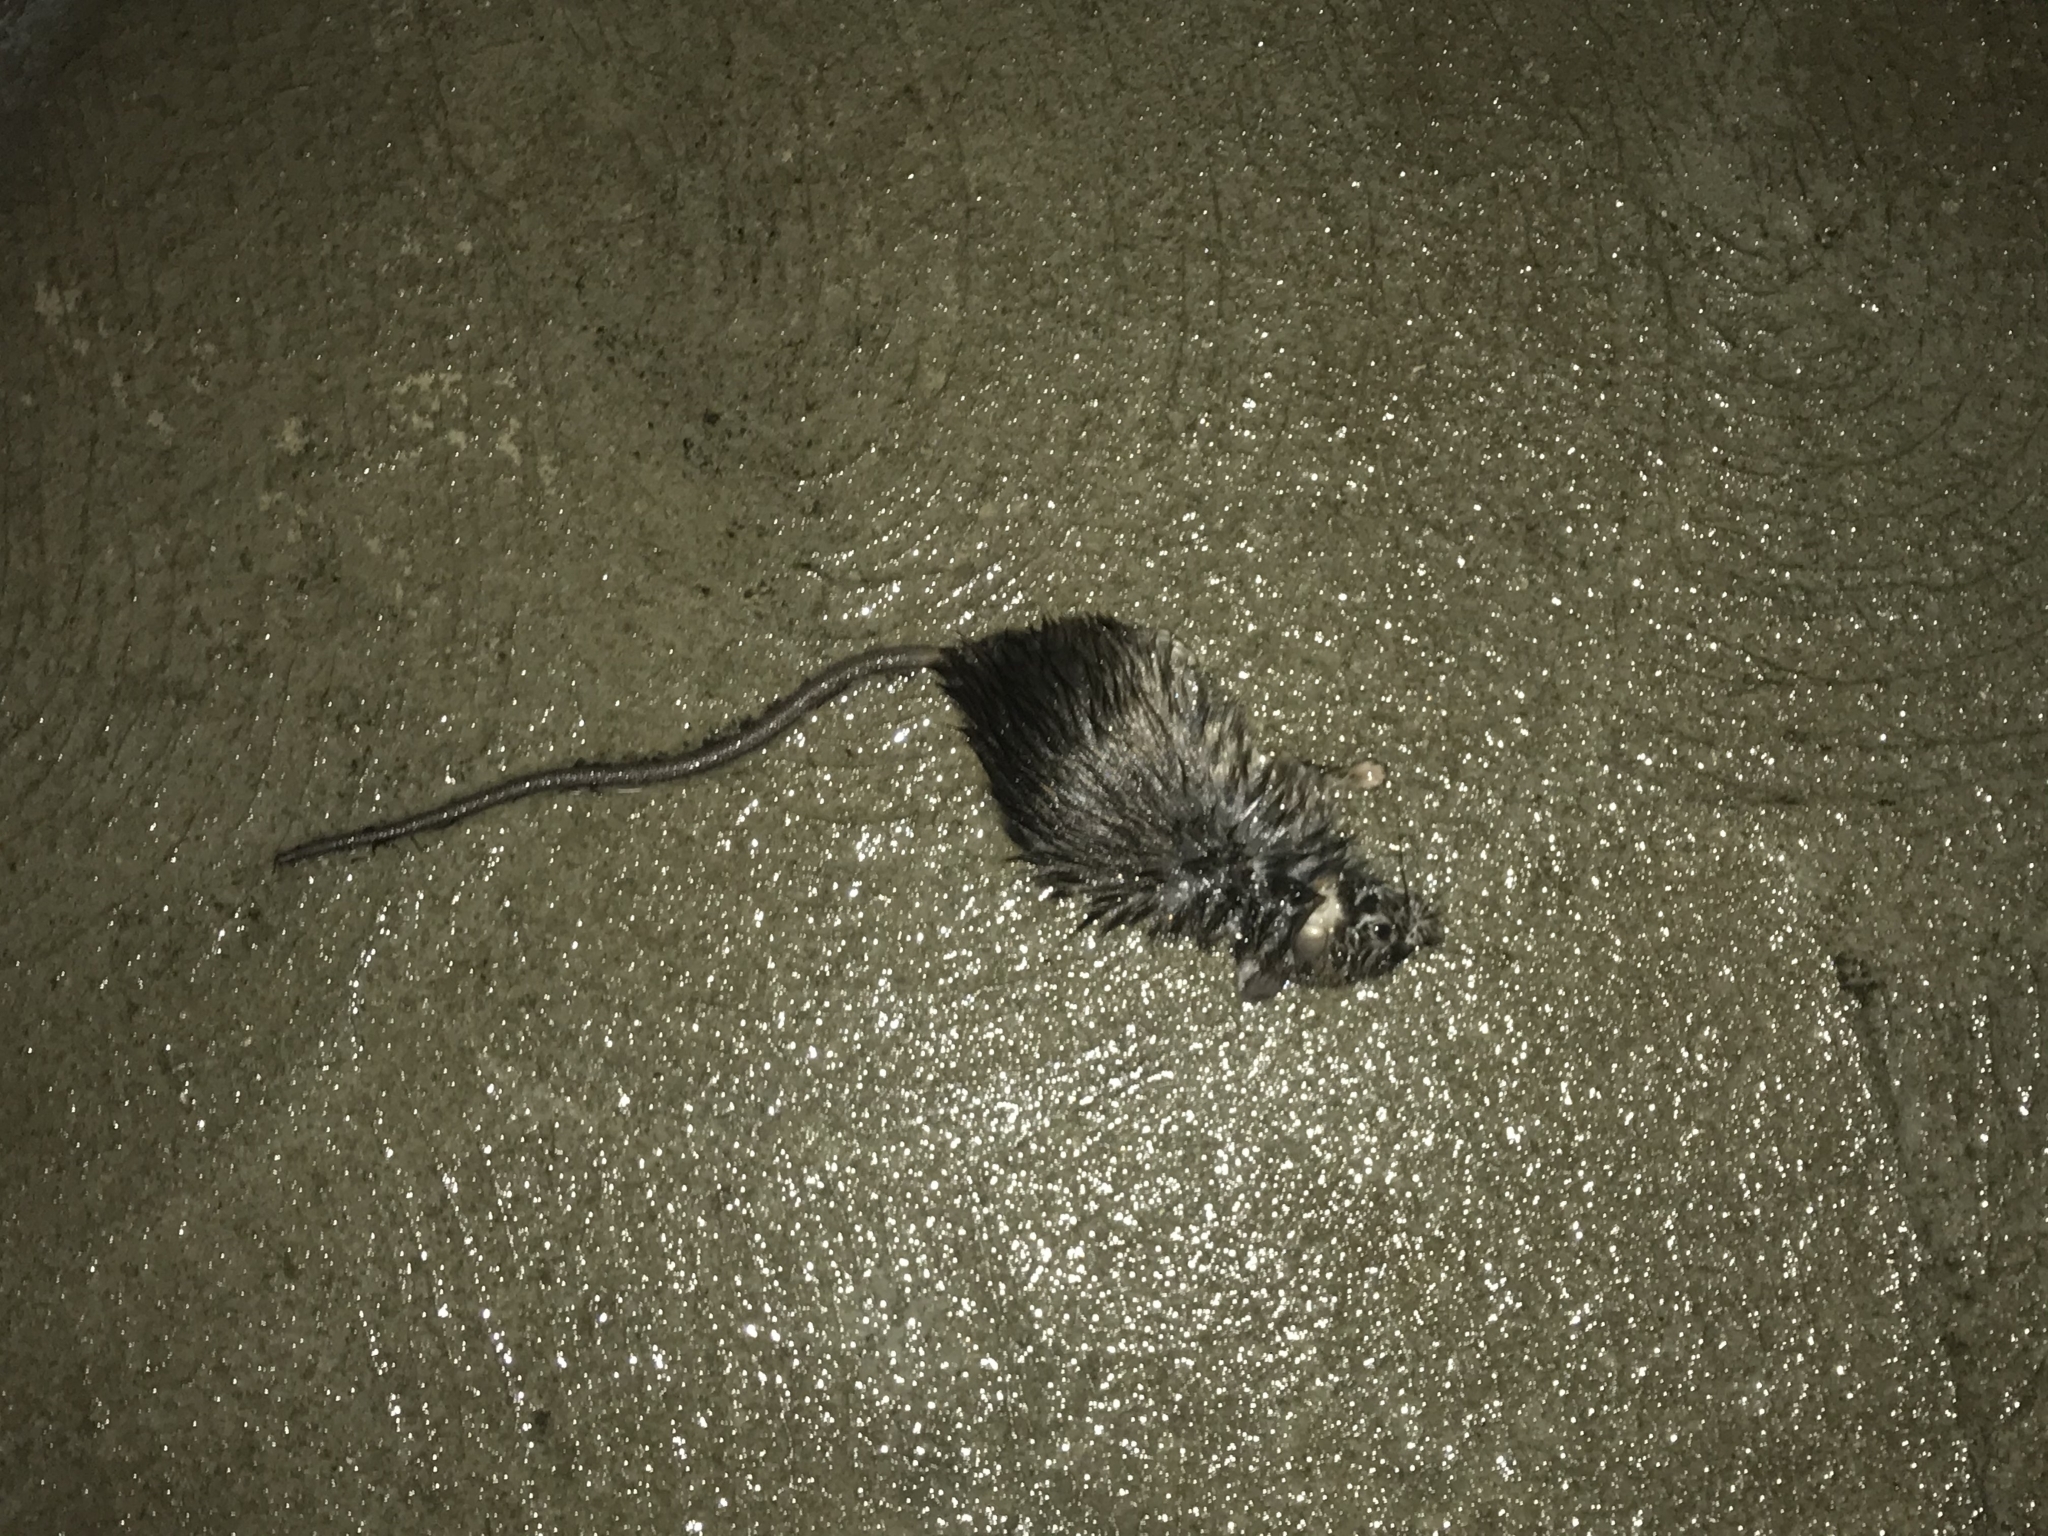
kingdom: Animalia
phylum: Chordata
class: Mammalia
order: Rodentia
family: Muridae
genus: Rattus
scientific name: Rattus rattus
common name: Black rat
